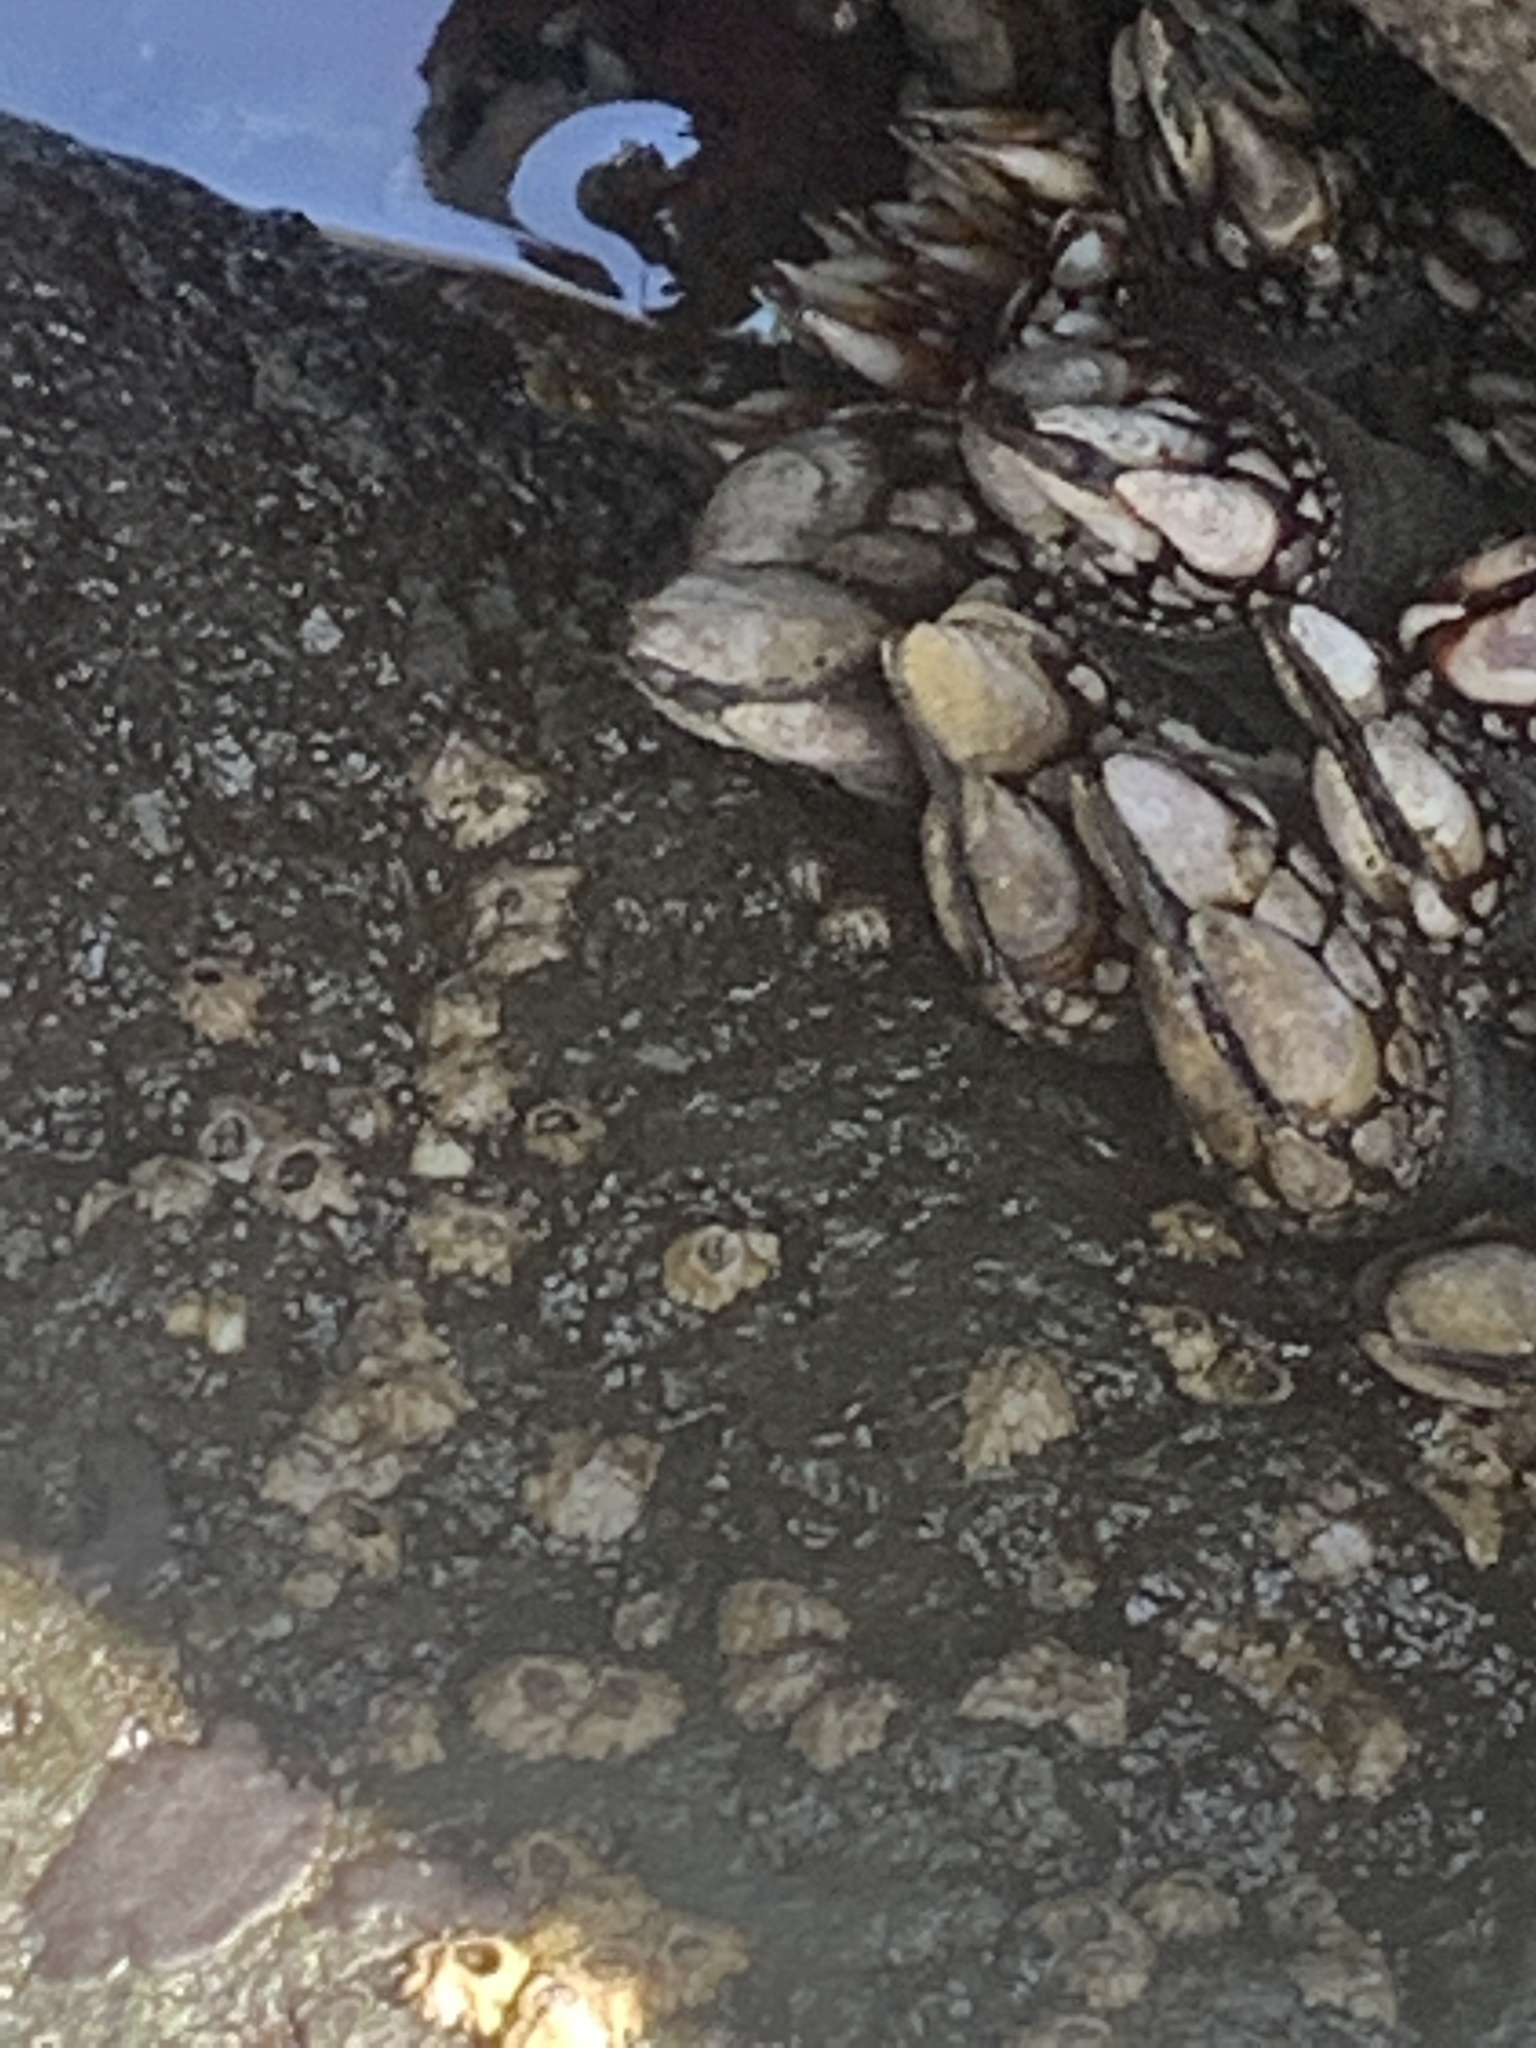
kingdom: Animalia
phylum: Arthropoda
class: Maxillopoda
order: Pedunculata
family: Pollicipedidae
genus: Pollicipes
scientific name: Pollicipes polymerus
